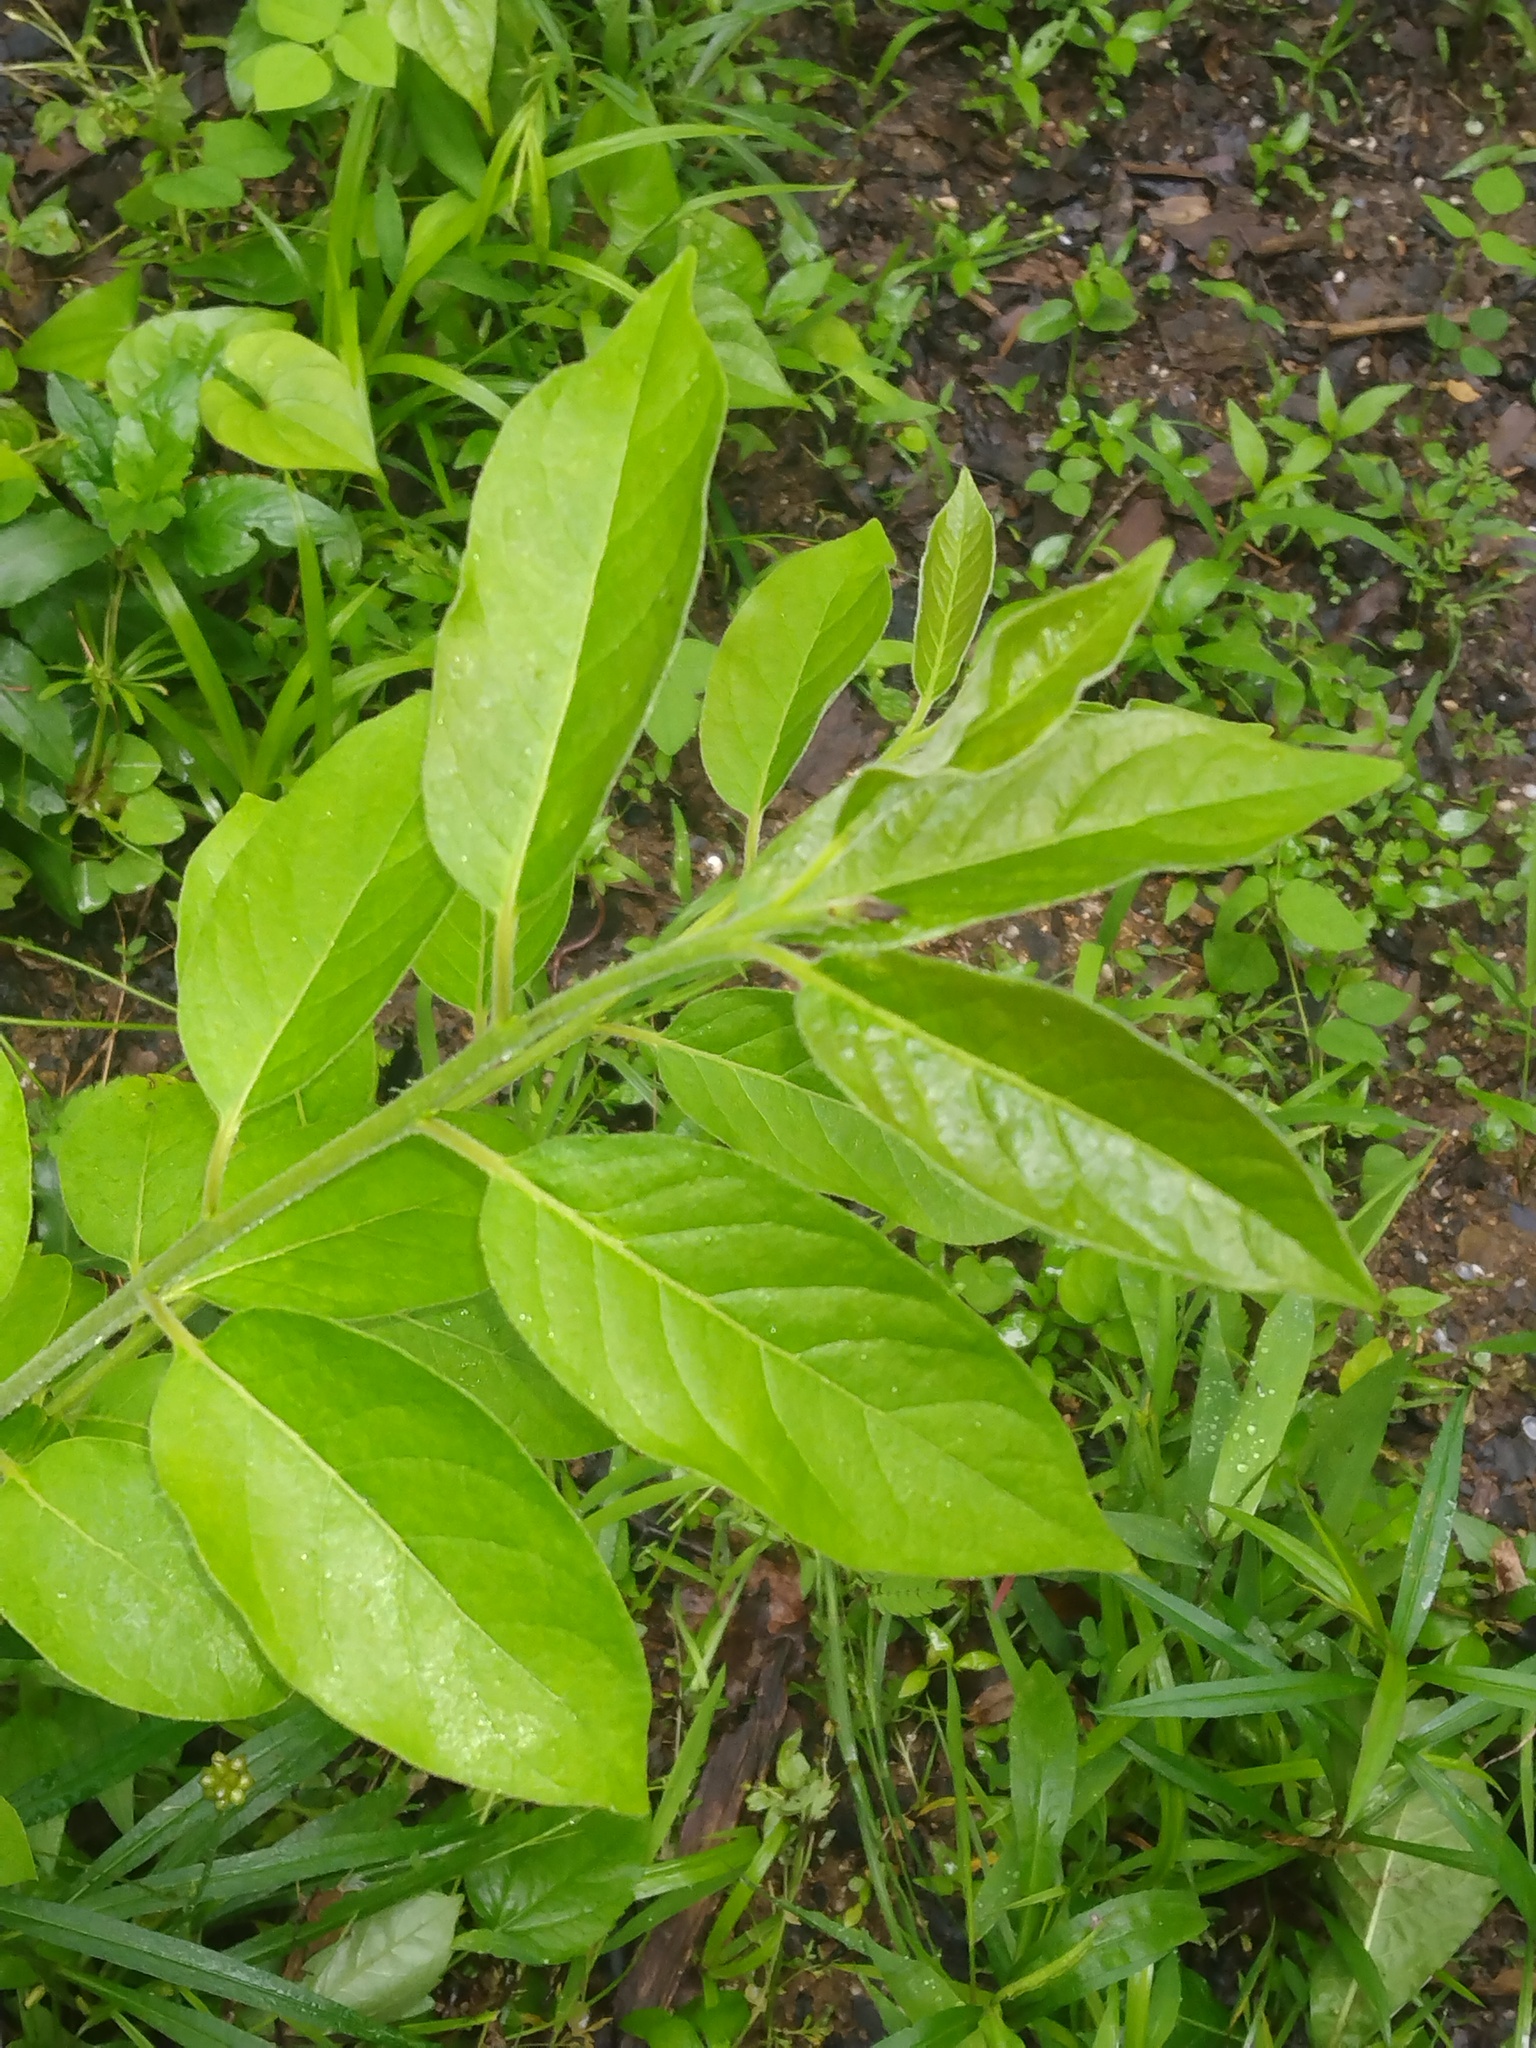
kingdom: Plantae
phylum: Tracheophyta
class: Magnoliopsida
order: Ericales
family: Ebenaceae
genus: Diospyros
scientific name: Diospyros virginiana
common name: Persimmon
